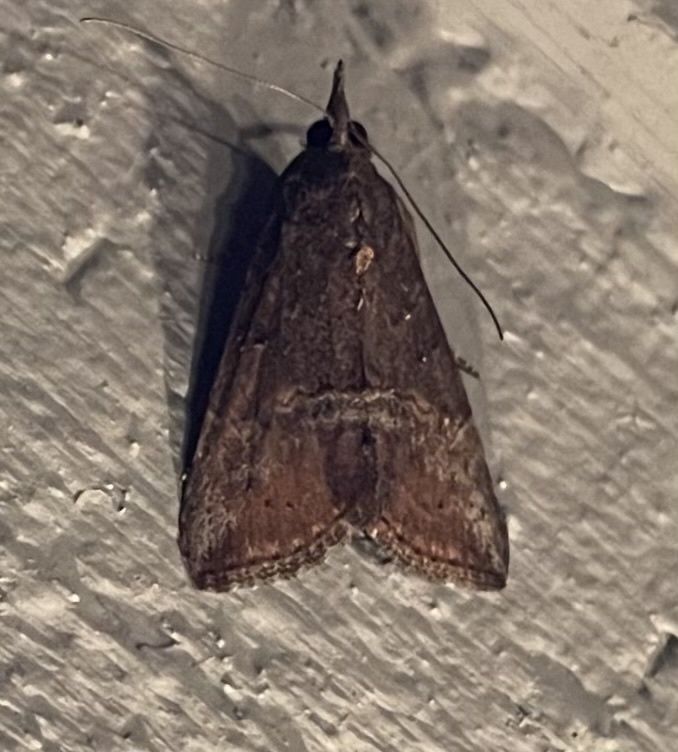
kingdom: Animalia
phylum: Arthropoda
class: Insecta
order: Lepidoptera
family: Erebidae
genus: Hypena
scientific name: Hypena scabra
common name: Green cloverworm
